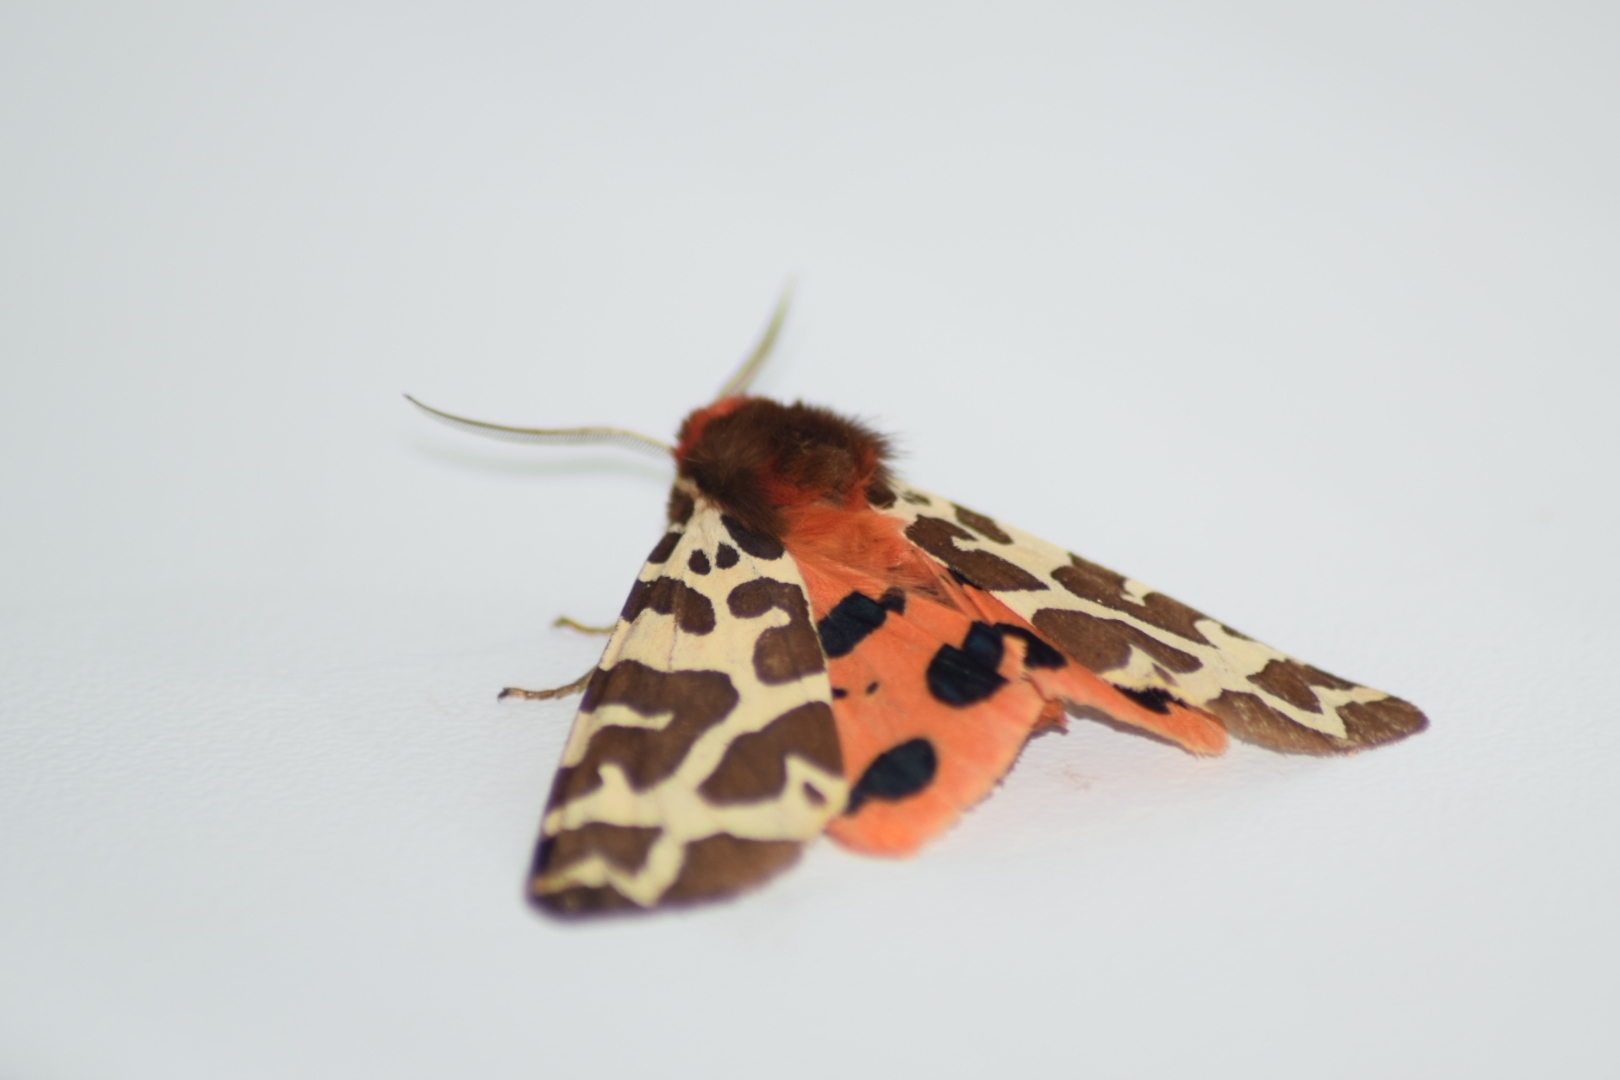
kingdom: Animalia
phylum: Arthropoda
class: Insecta
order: Lepidoptera
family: Erebidae
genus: Arctia
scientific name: Arctia caja
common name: Garden tiger
